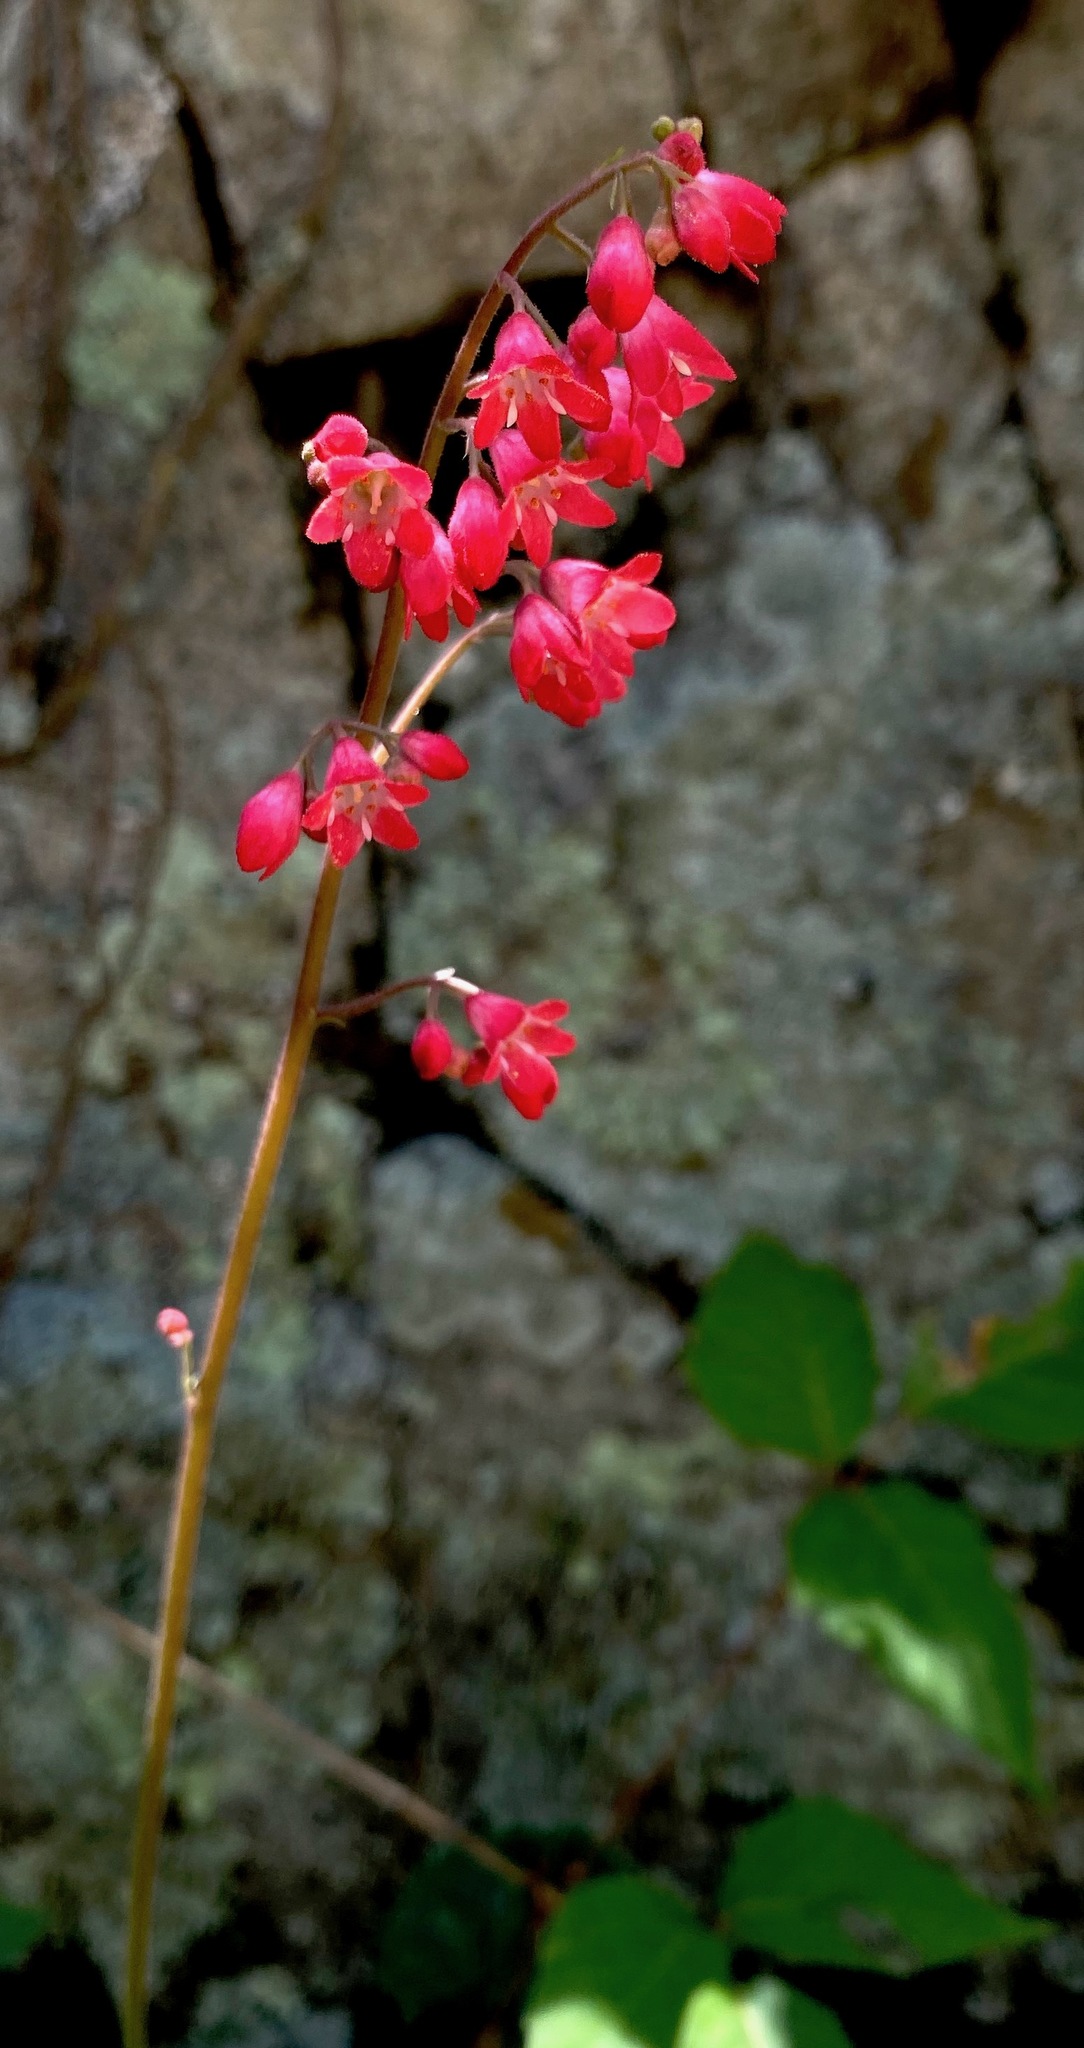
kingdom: Plantae
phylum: Tracheophyta
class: Magnoliopsida
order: Saxifragales
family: Saxifragaceae
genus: Heuchera
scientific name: Heuchera sanguinea
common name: Coralbells
